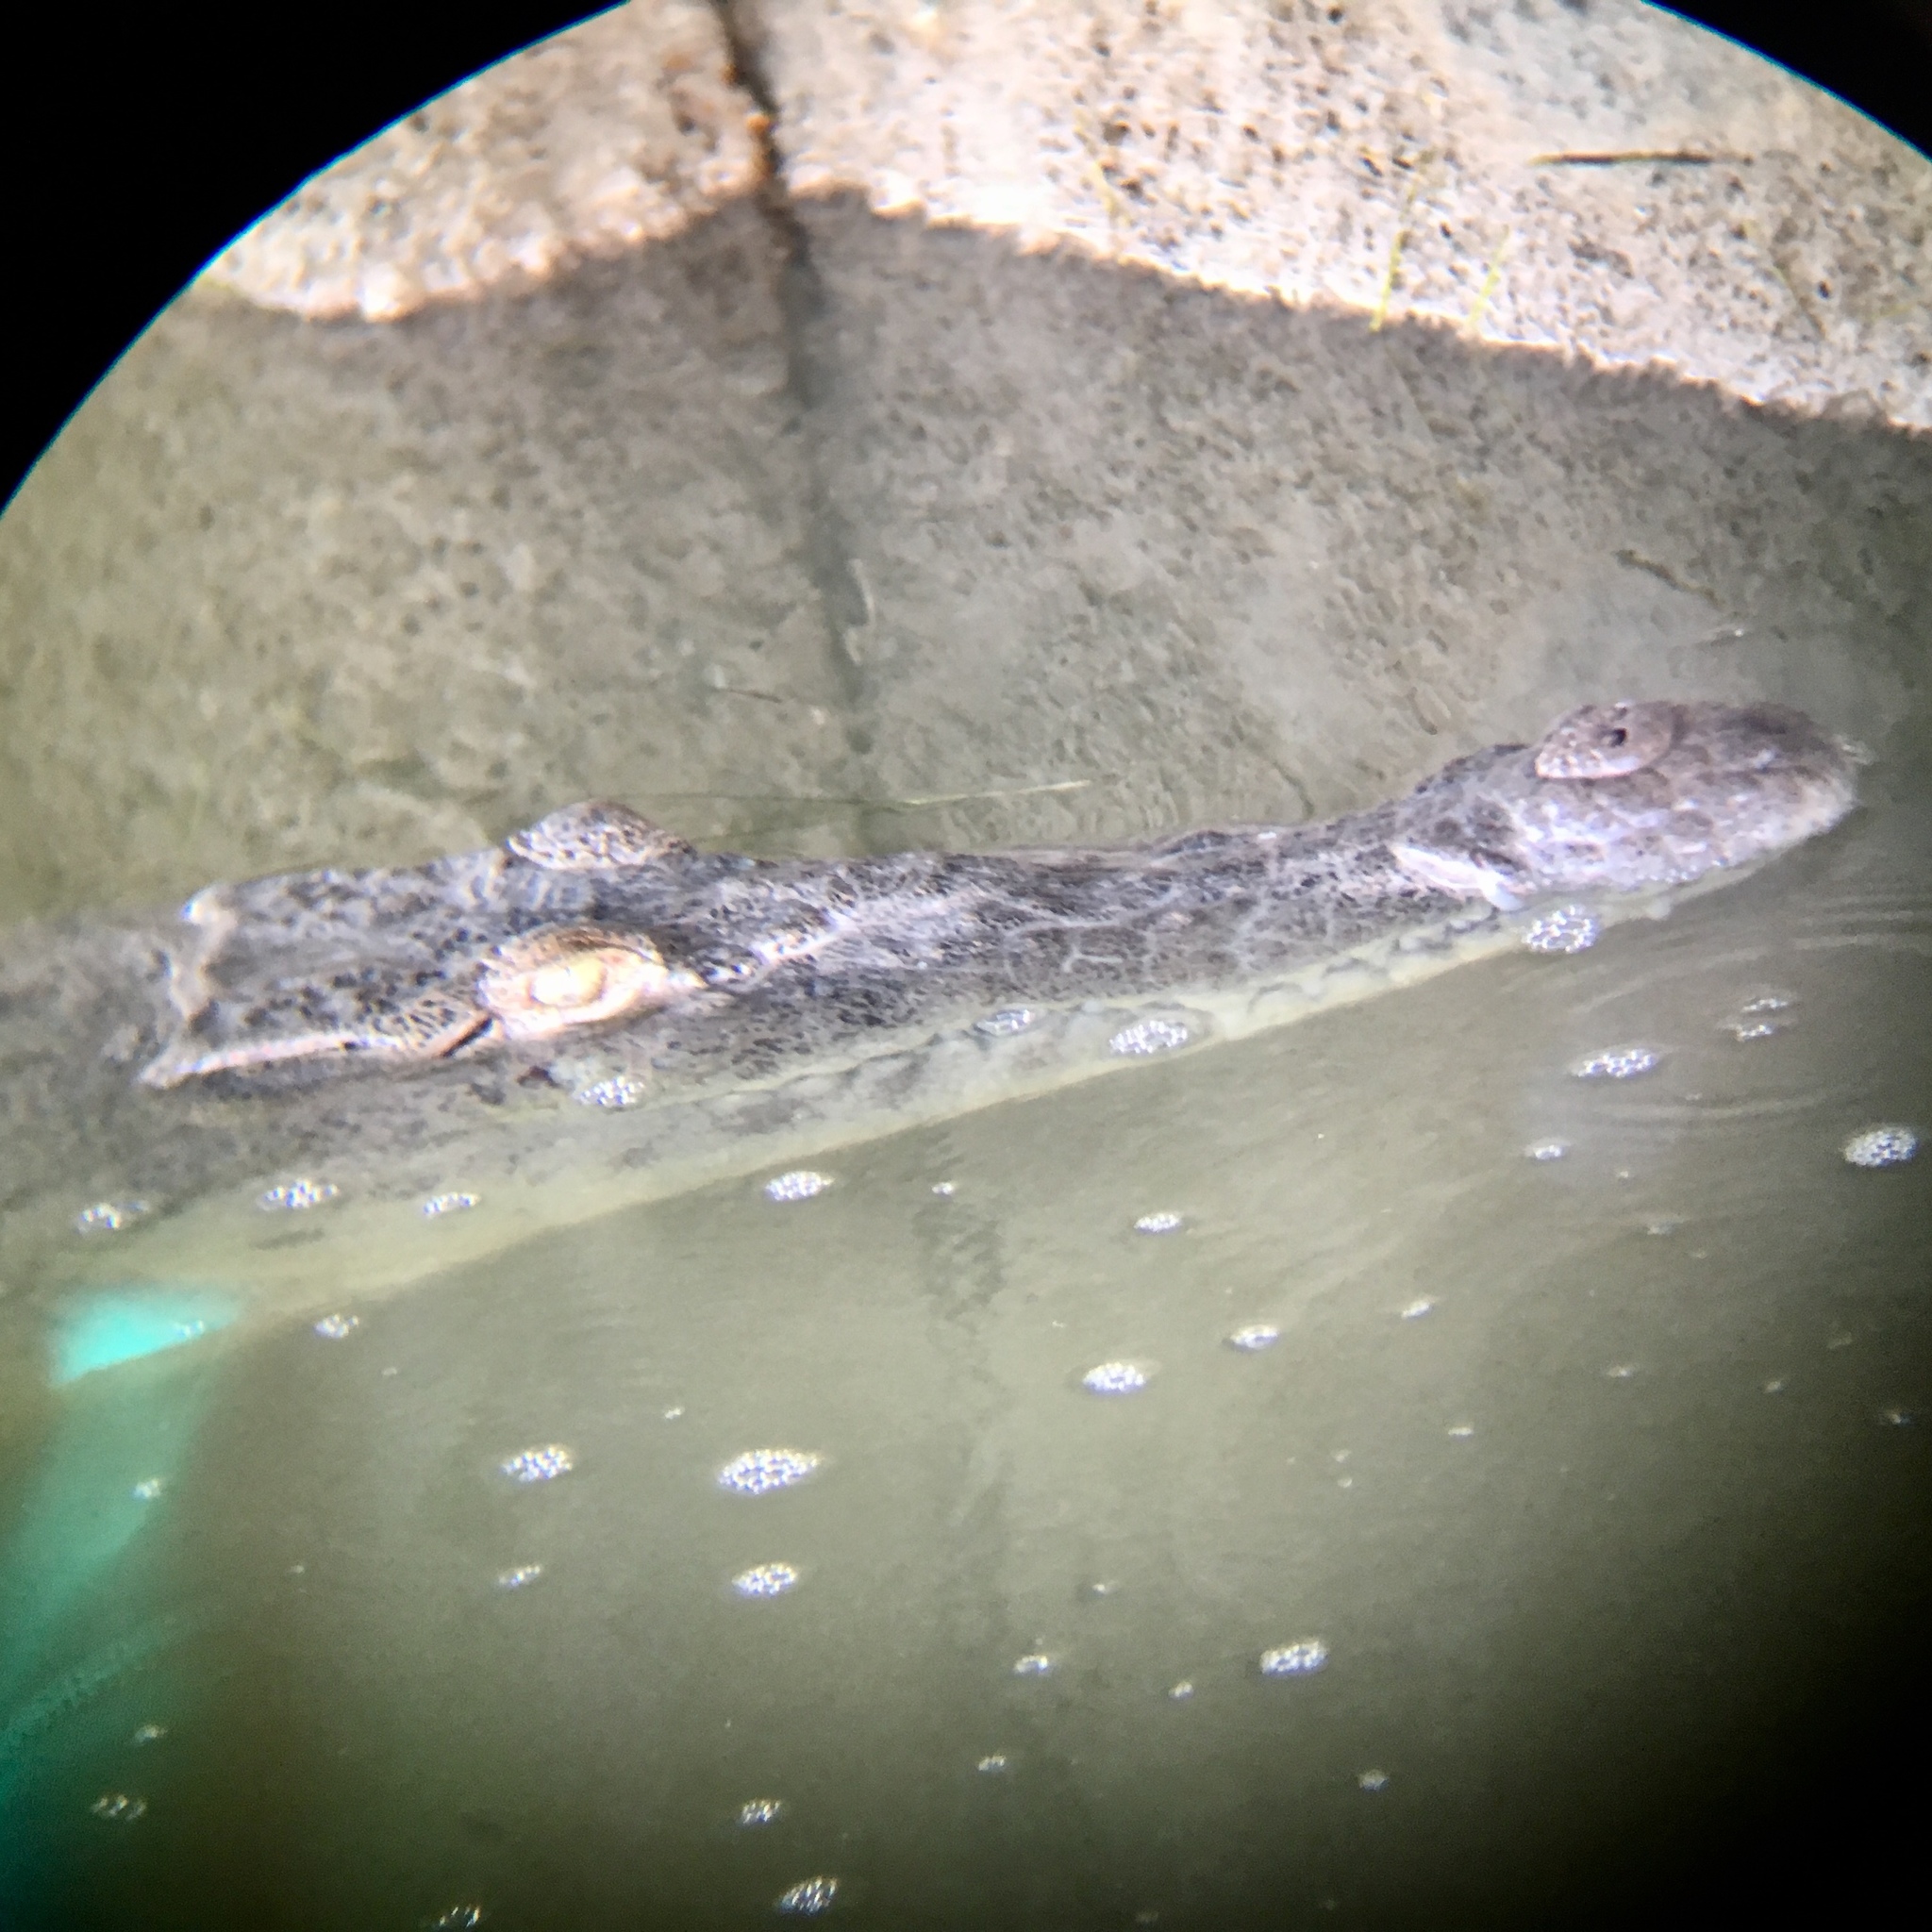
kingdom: Animalia
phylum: Chordata
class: Crocodylia
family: Crocodylidae
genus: Crocodylus
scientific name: Crocodylus acutus
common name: American crocodile
